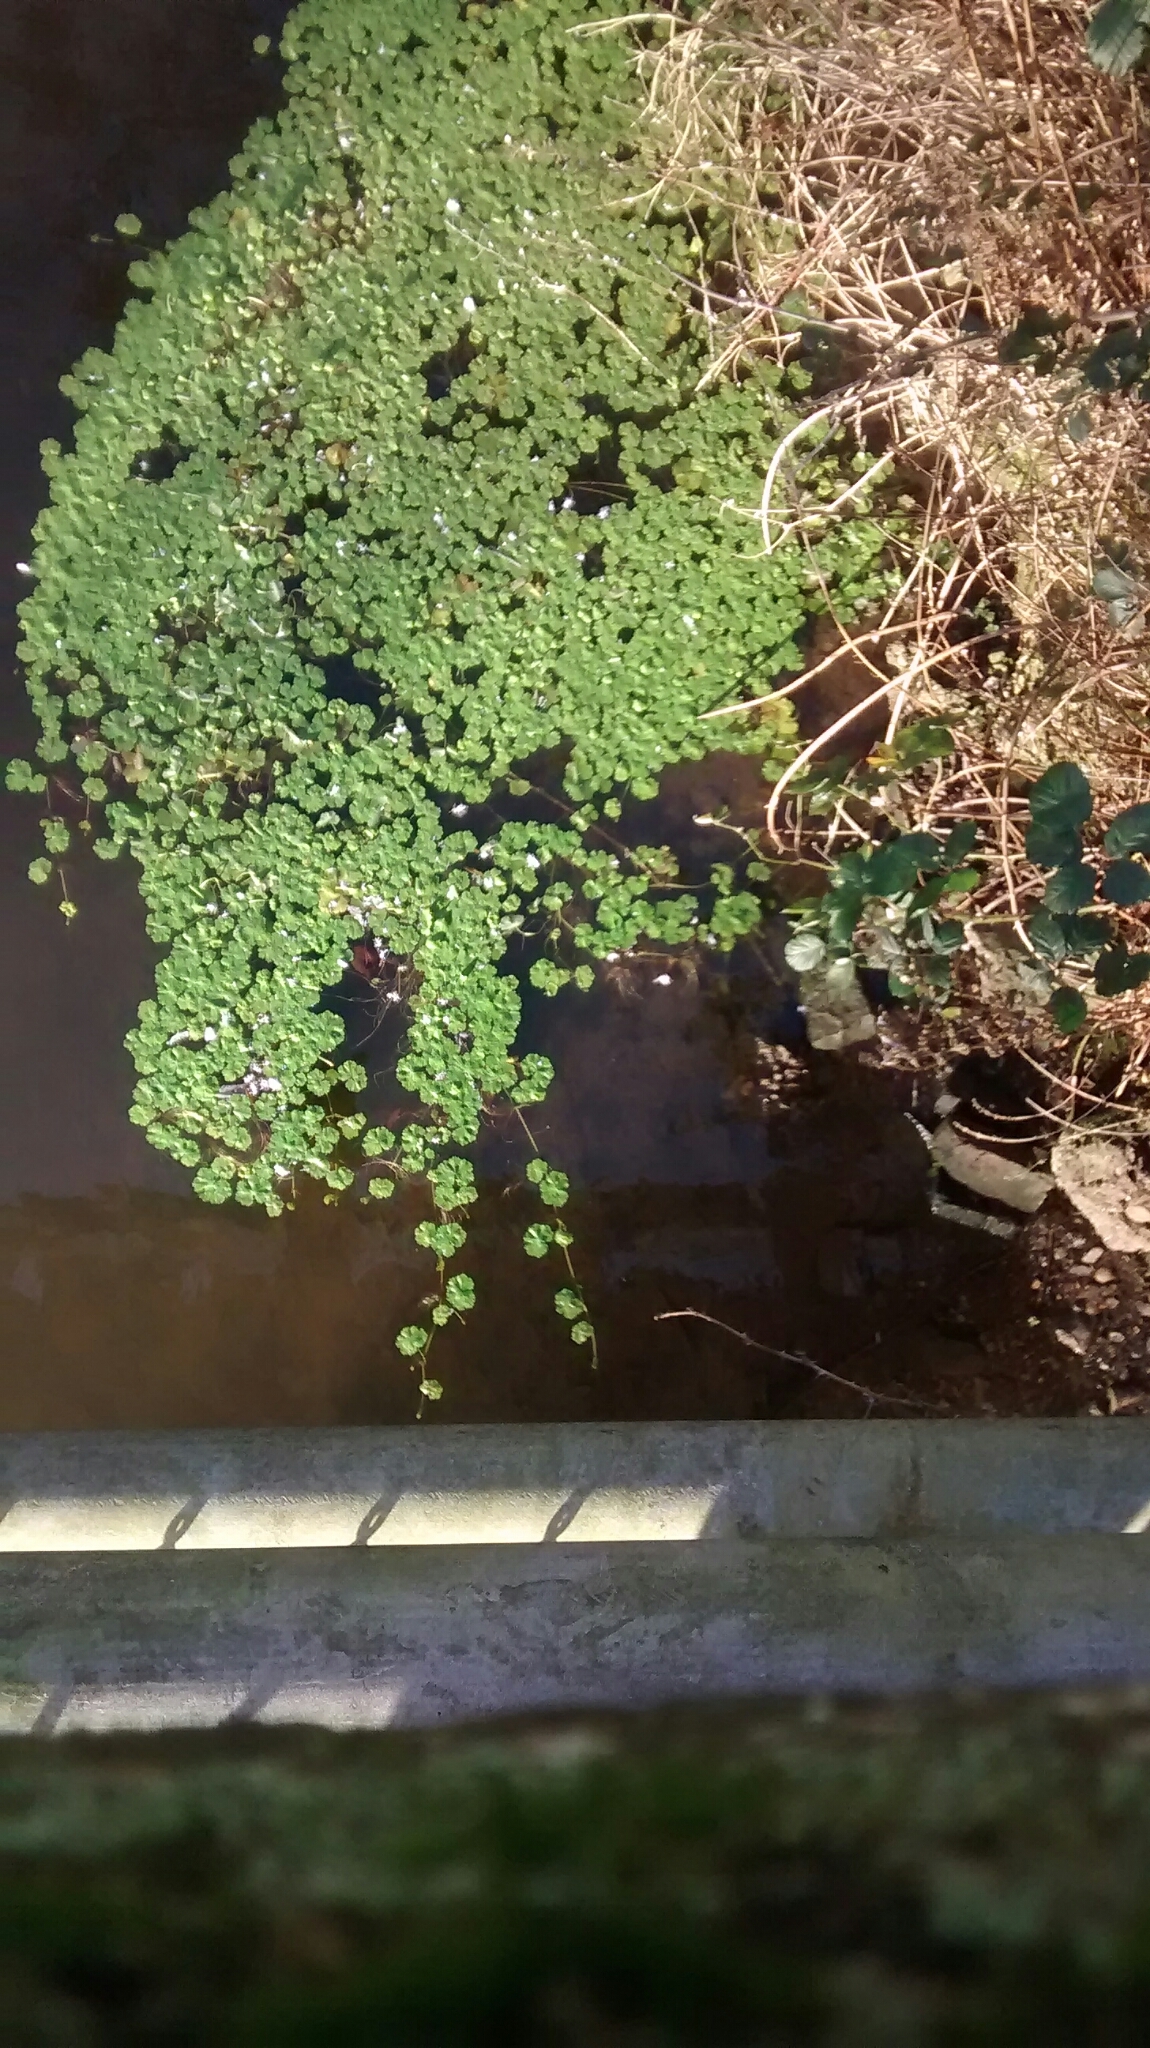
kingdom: Plantae
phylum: Tracheophyta
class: Magnoliopsida
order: Apiales
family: Araliaceae
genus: Hydrocotyle
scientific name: Hydrocotyle ranunculoides
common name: Floating pennywort
